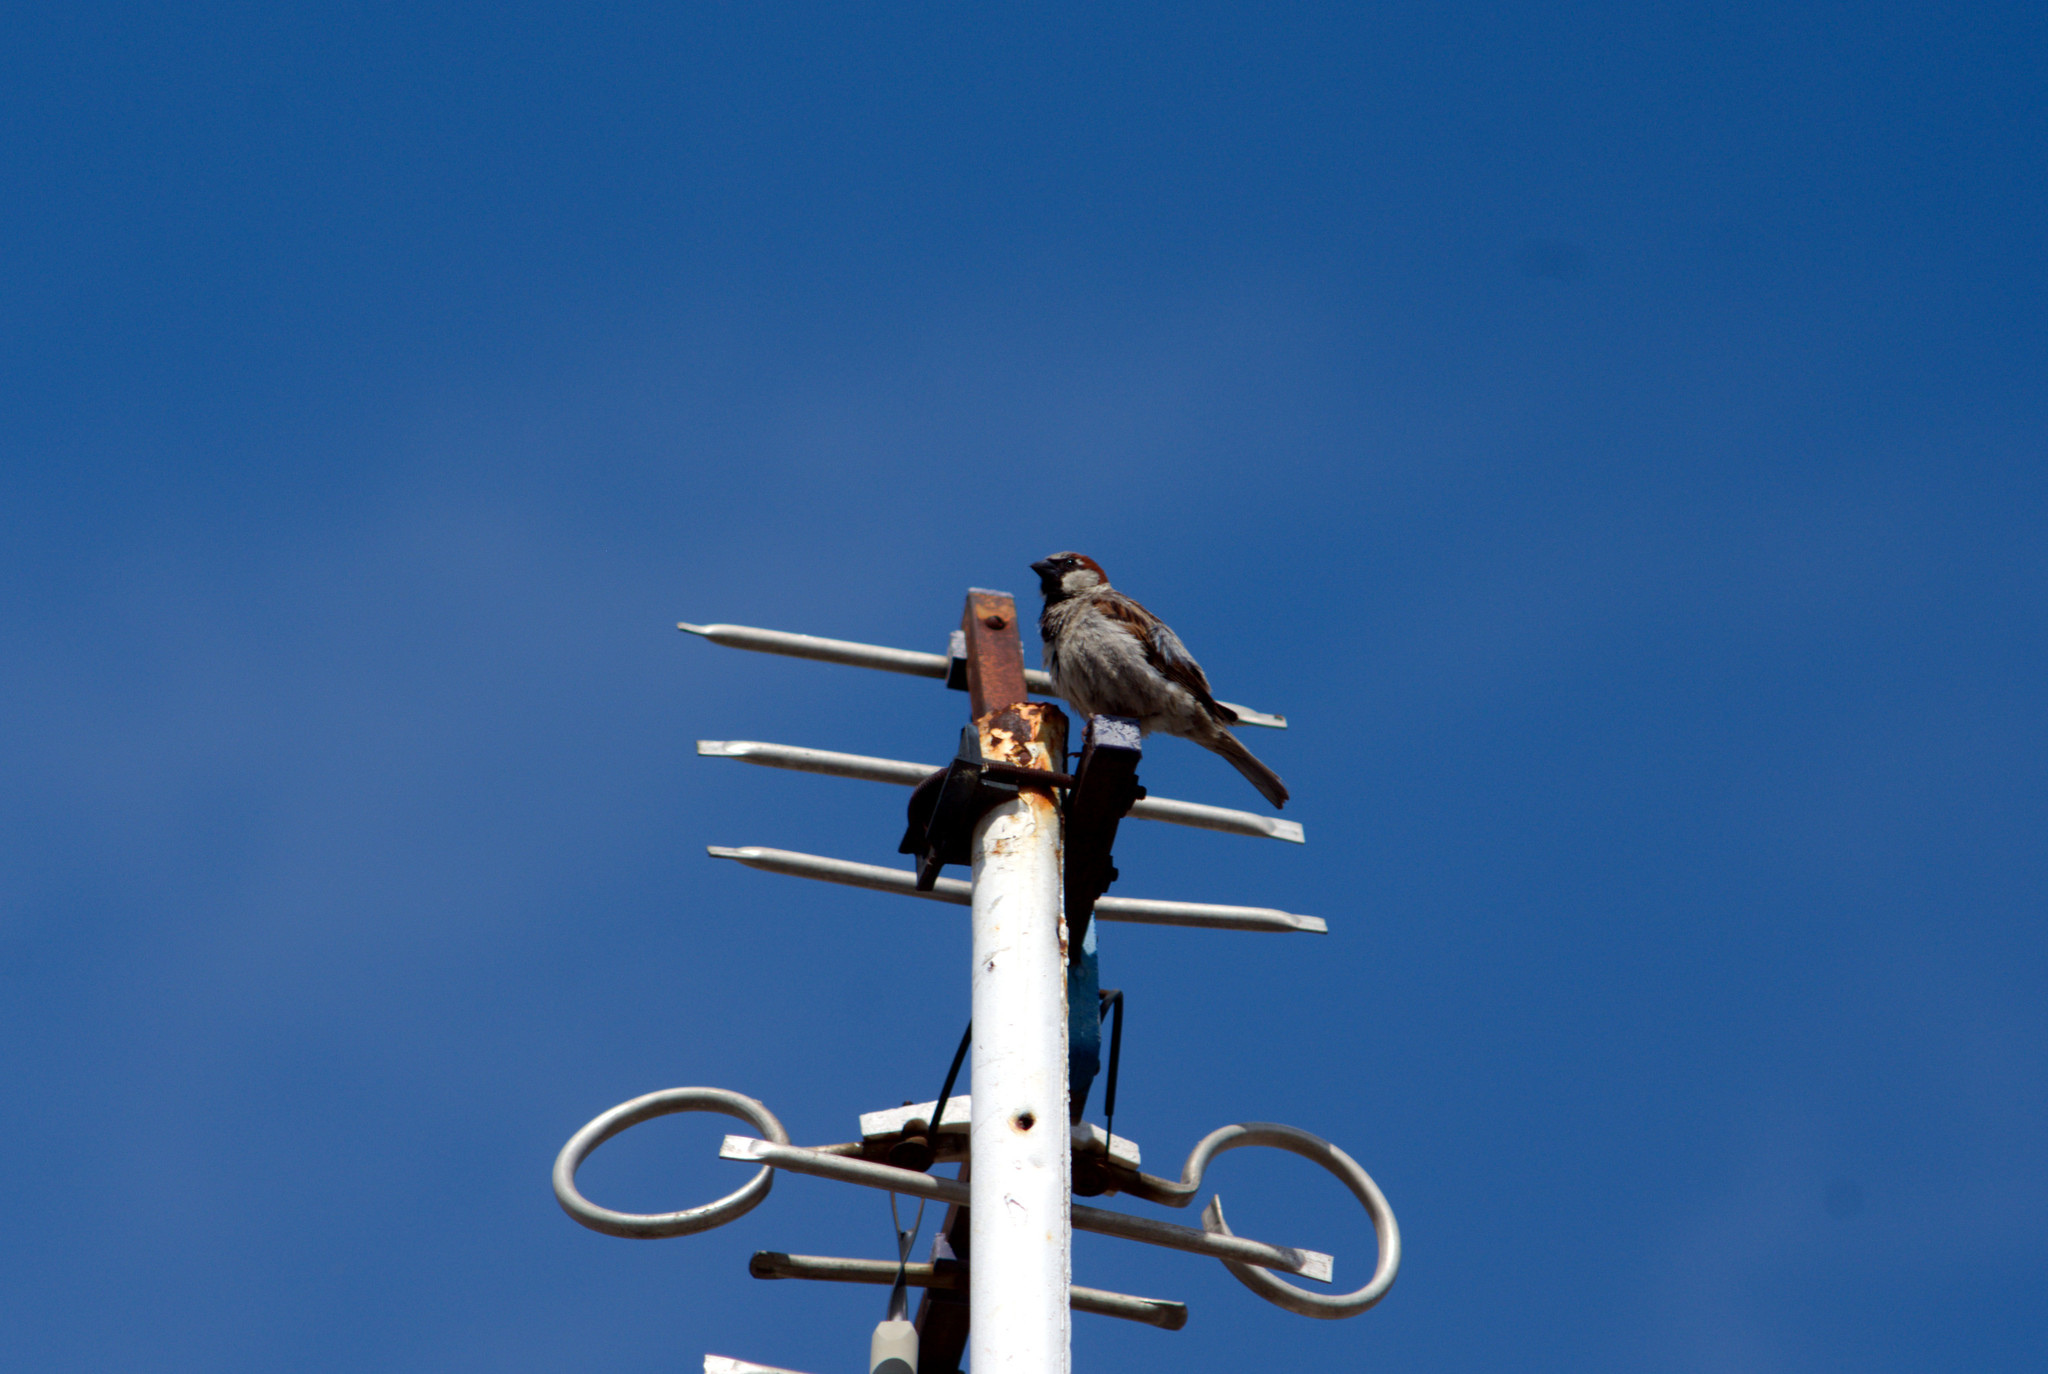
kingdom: Animalia
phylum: Chordata
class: Aves
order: Passeriformes
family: Passeridae
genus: Passer
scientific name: Passer domesticus
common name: House sparrow
